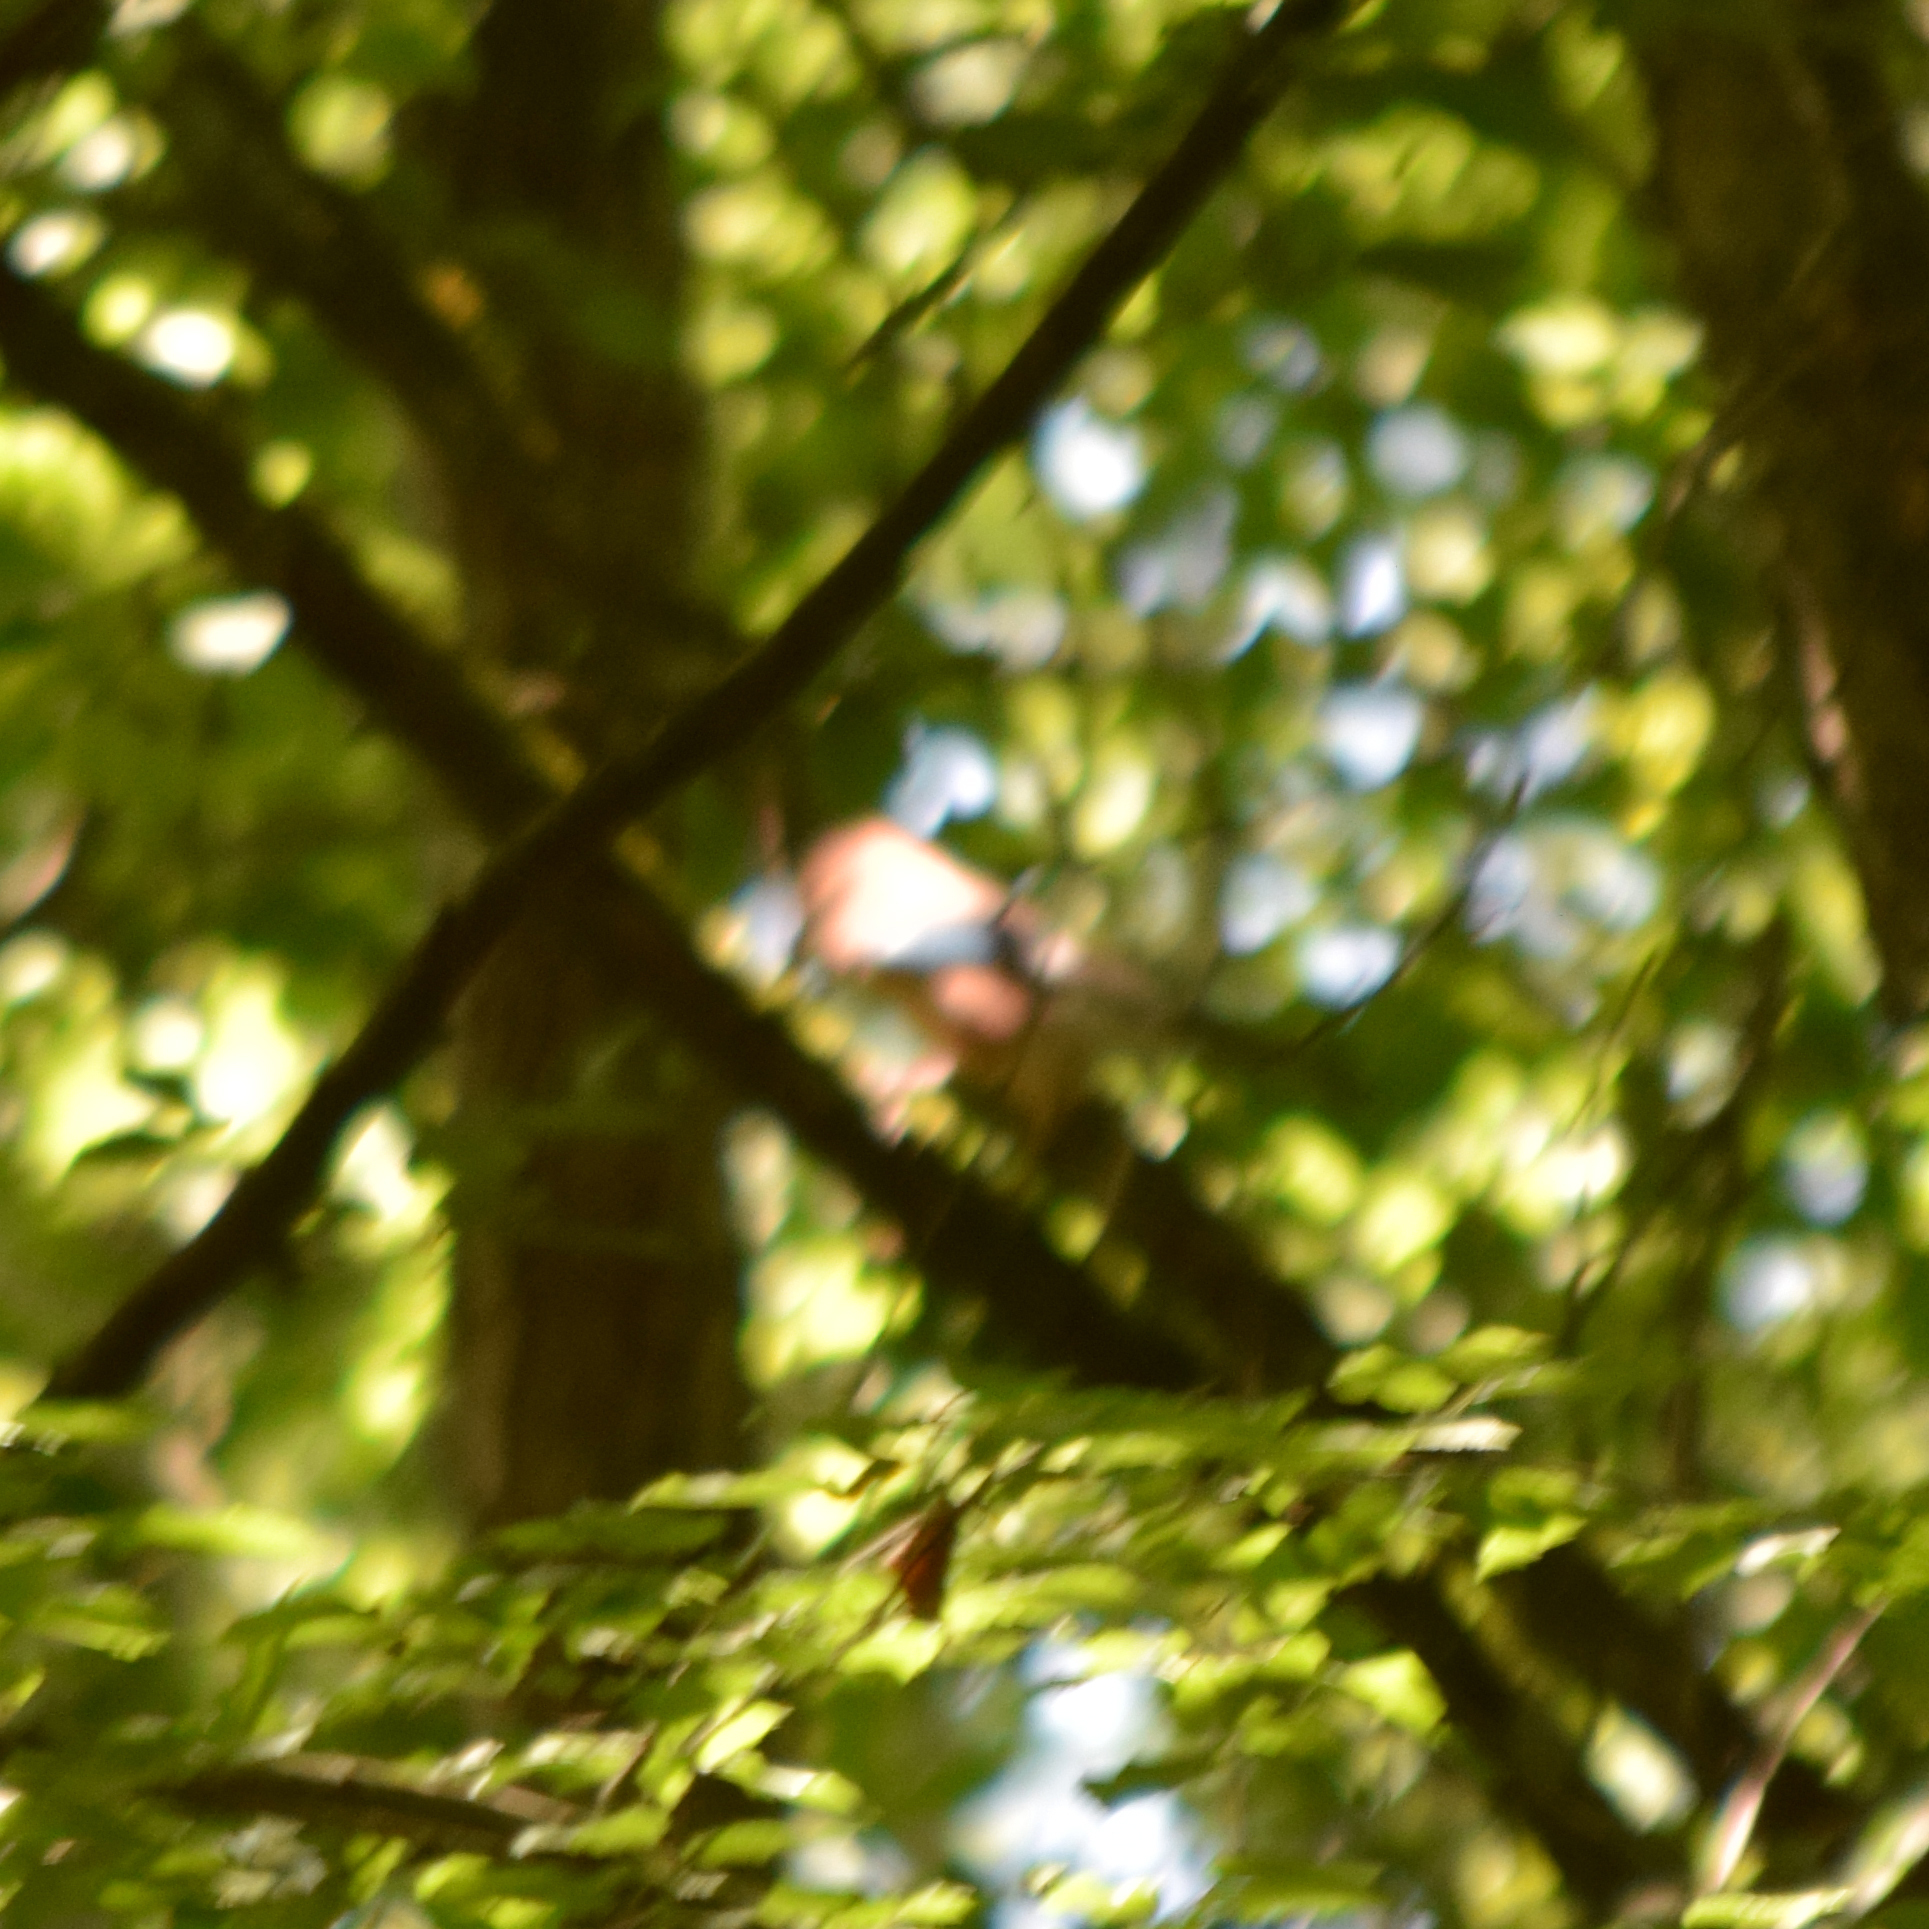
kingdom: Animalia
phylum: Chordata
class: Aves
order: Accipitriformes
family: Accipitridae
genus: Buteo
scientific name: Buteo buteo
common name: Common buzzard
